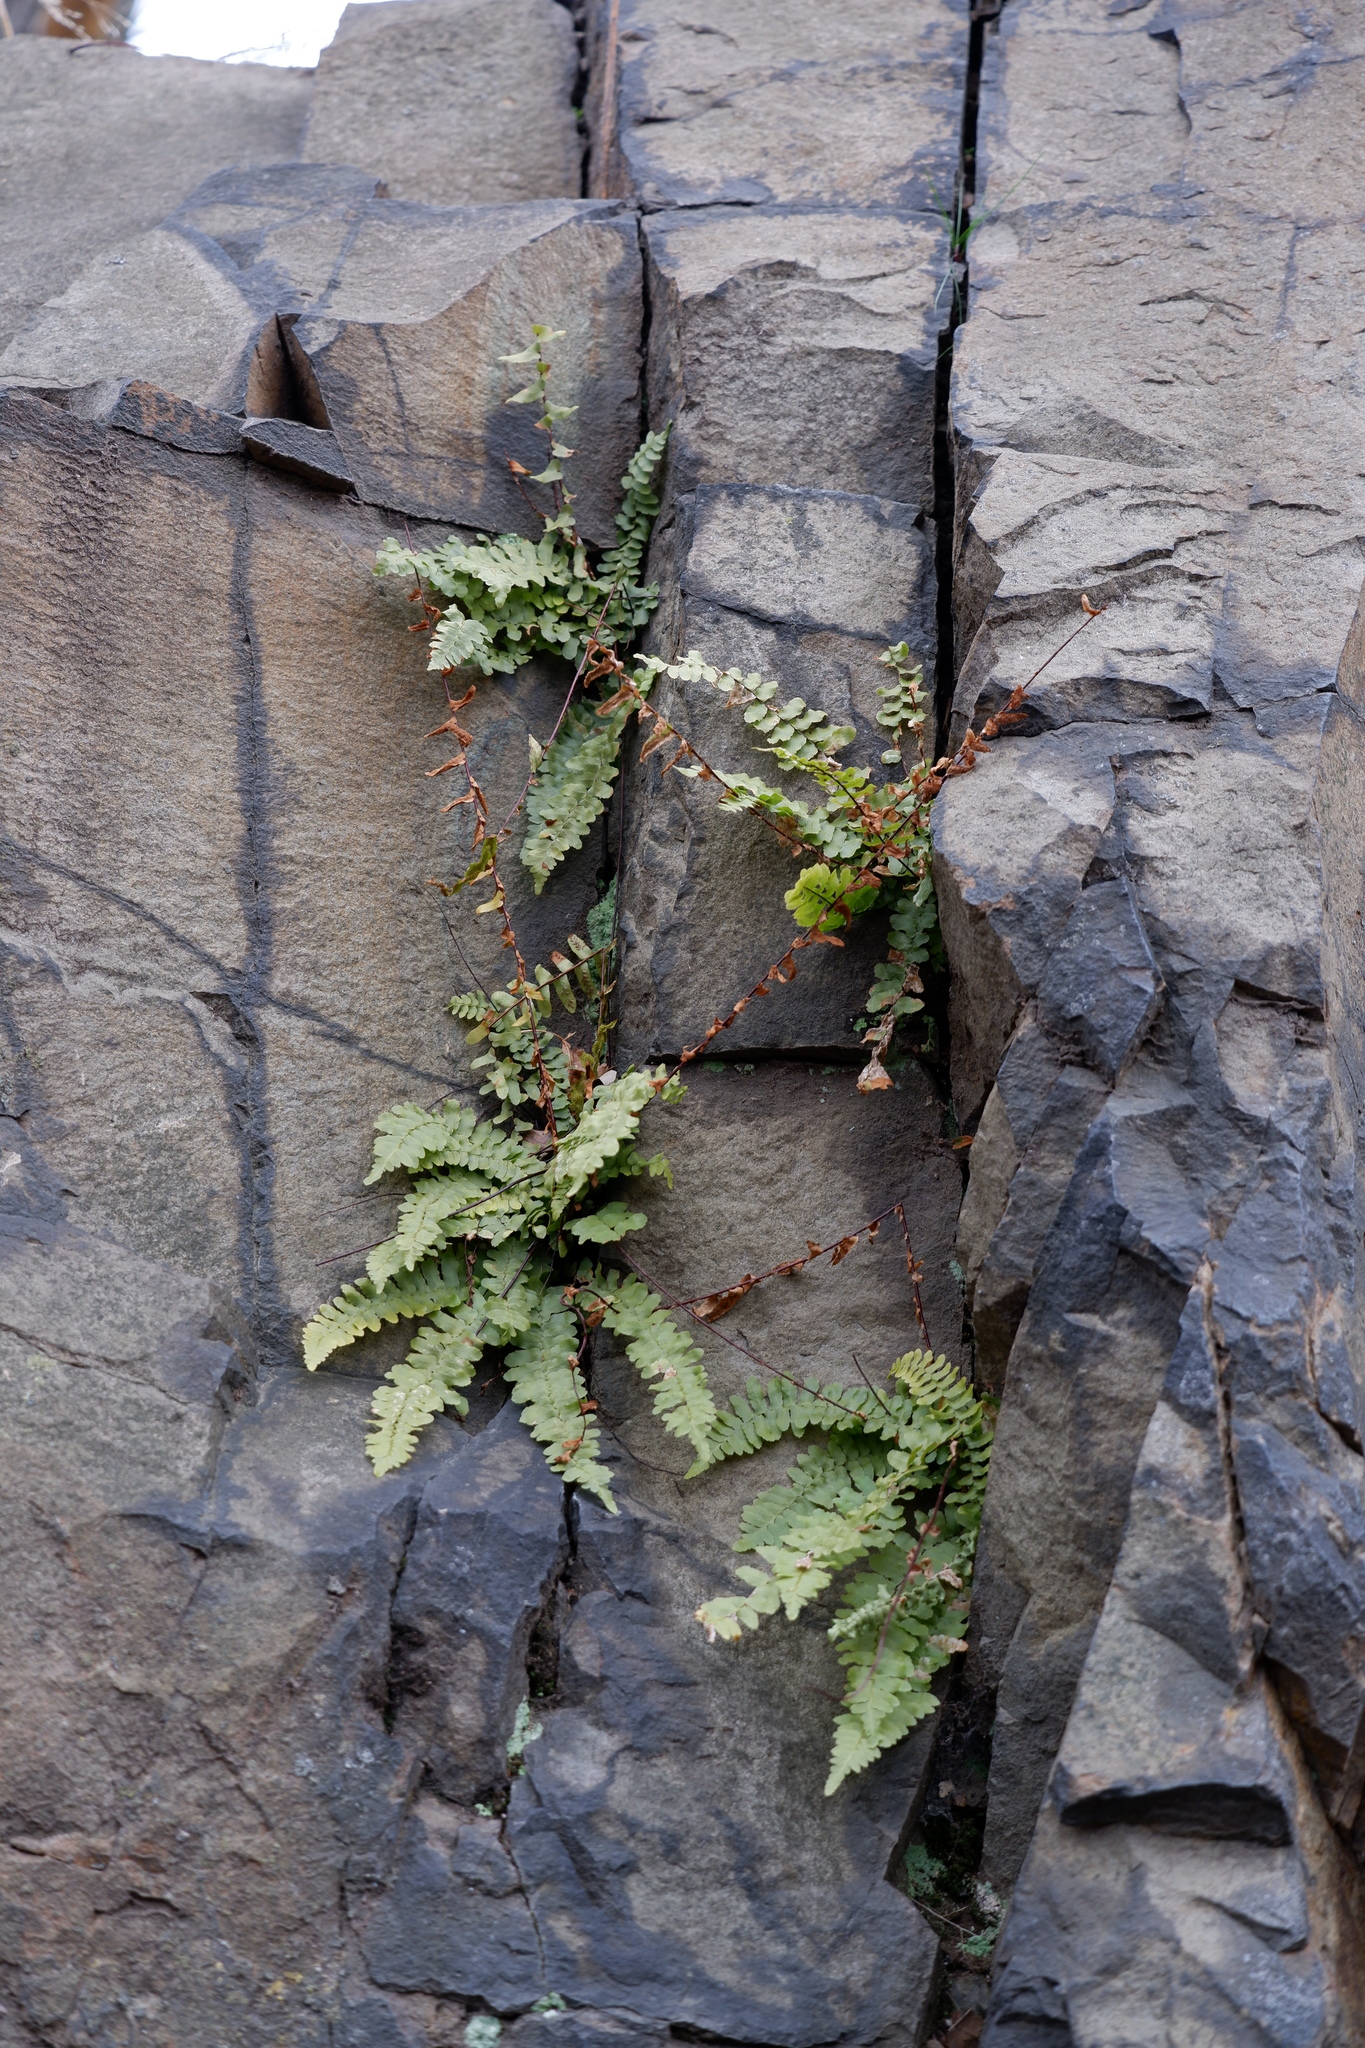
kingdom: Plantae
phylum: Tracheophyta
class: Polypodiopsida
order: Polypodiales
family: Aspleniaceae
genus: Asplenium
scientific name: Asplenium platyneuron
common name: Ebony spleenwort
